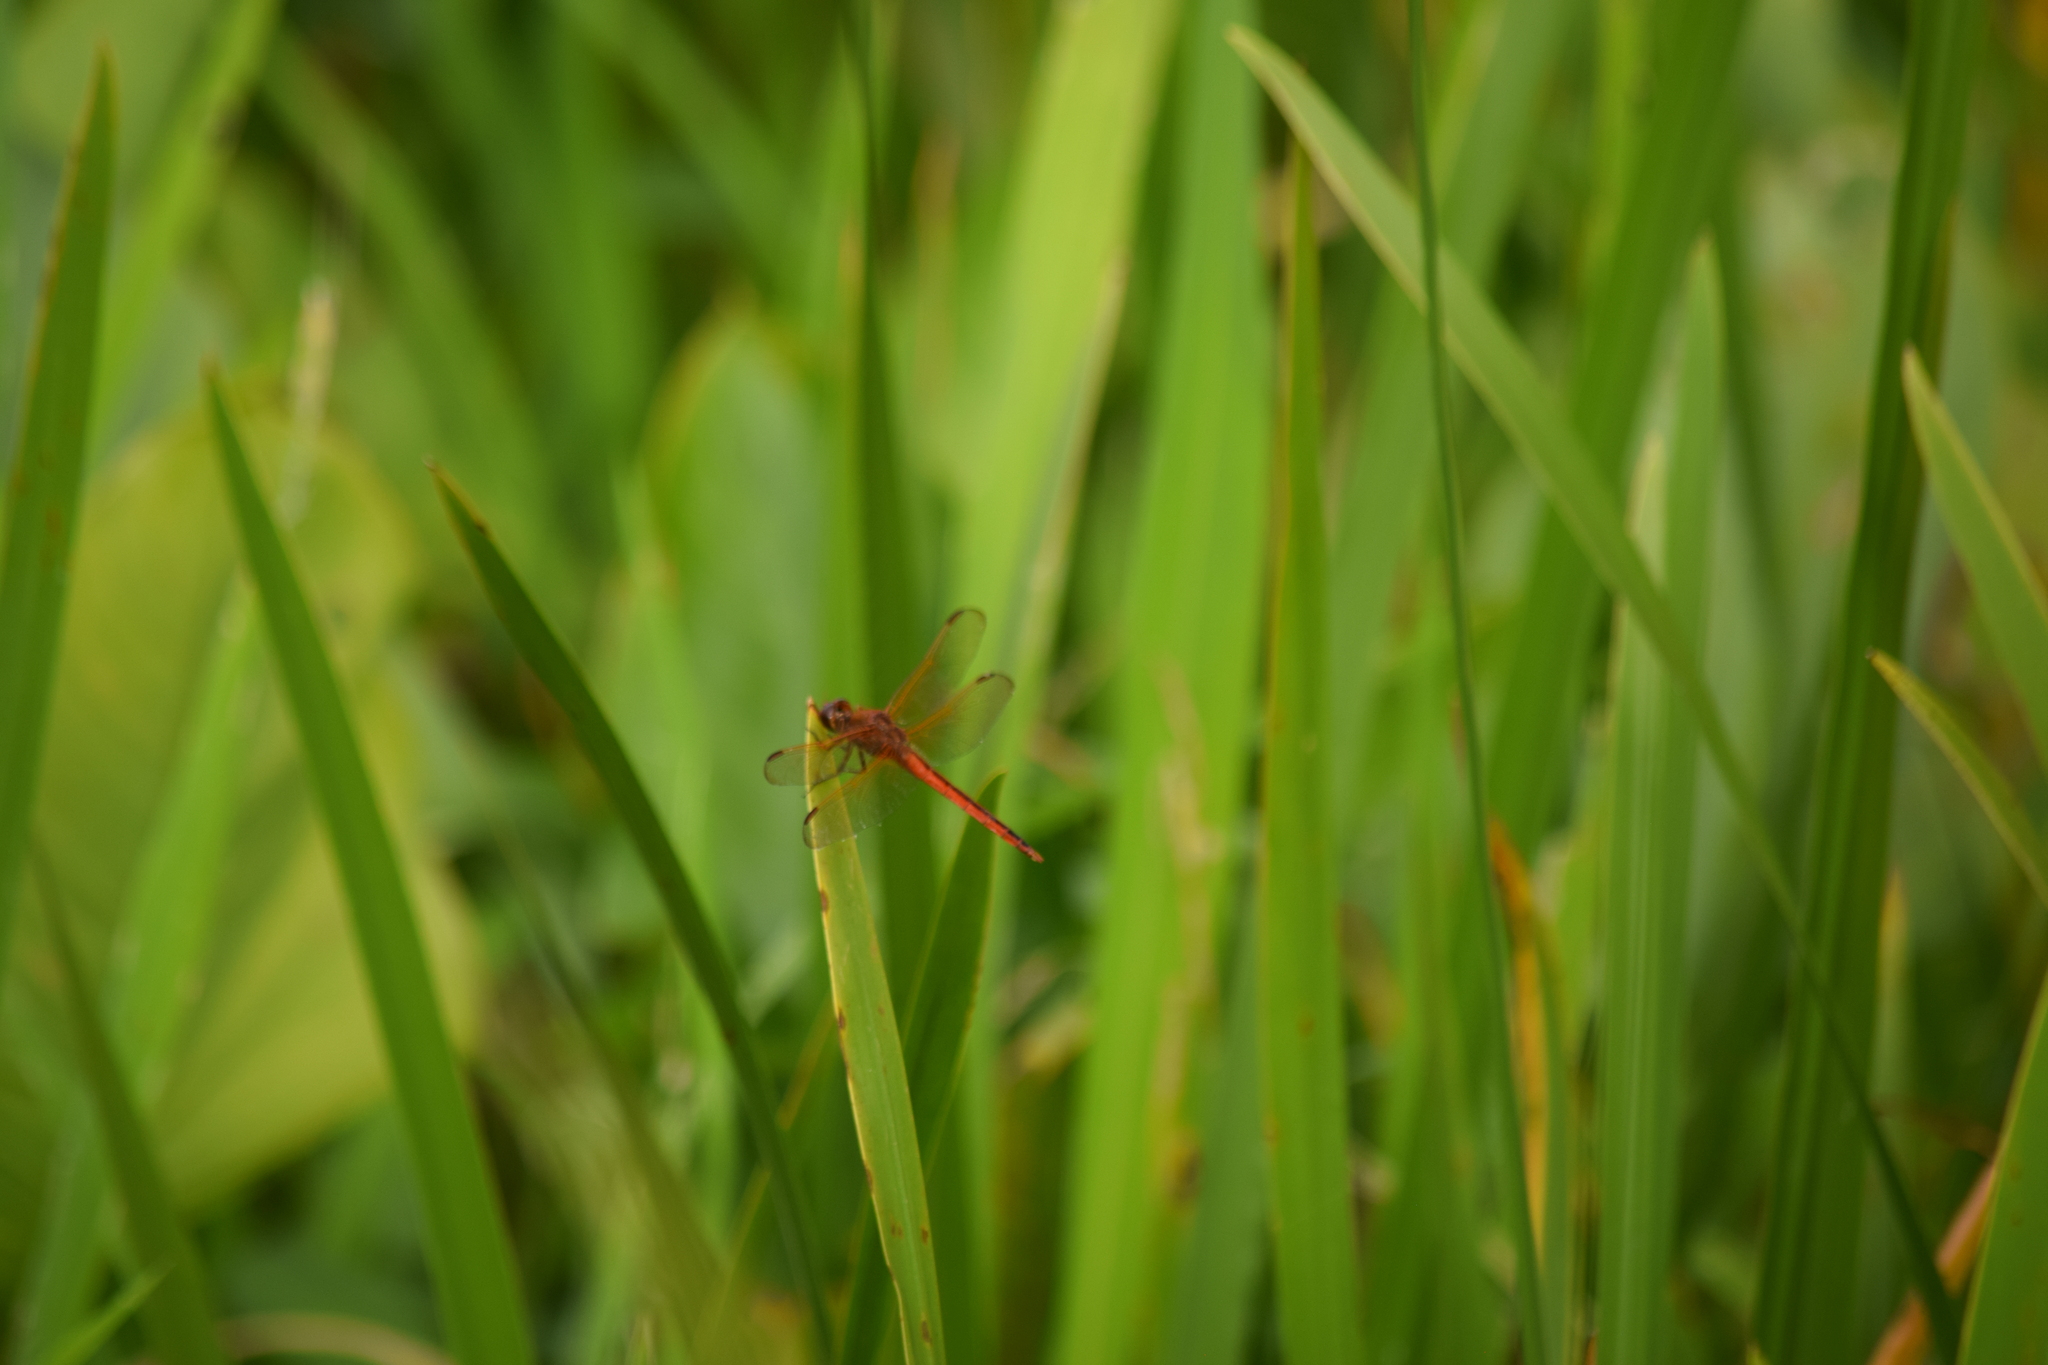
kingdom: Animalia
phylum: Arthropoda
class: Insecta
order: Odonata
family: Libellulidae
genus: Libellula
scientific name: Libellula needhami
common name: Needham's skimmer
